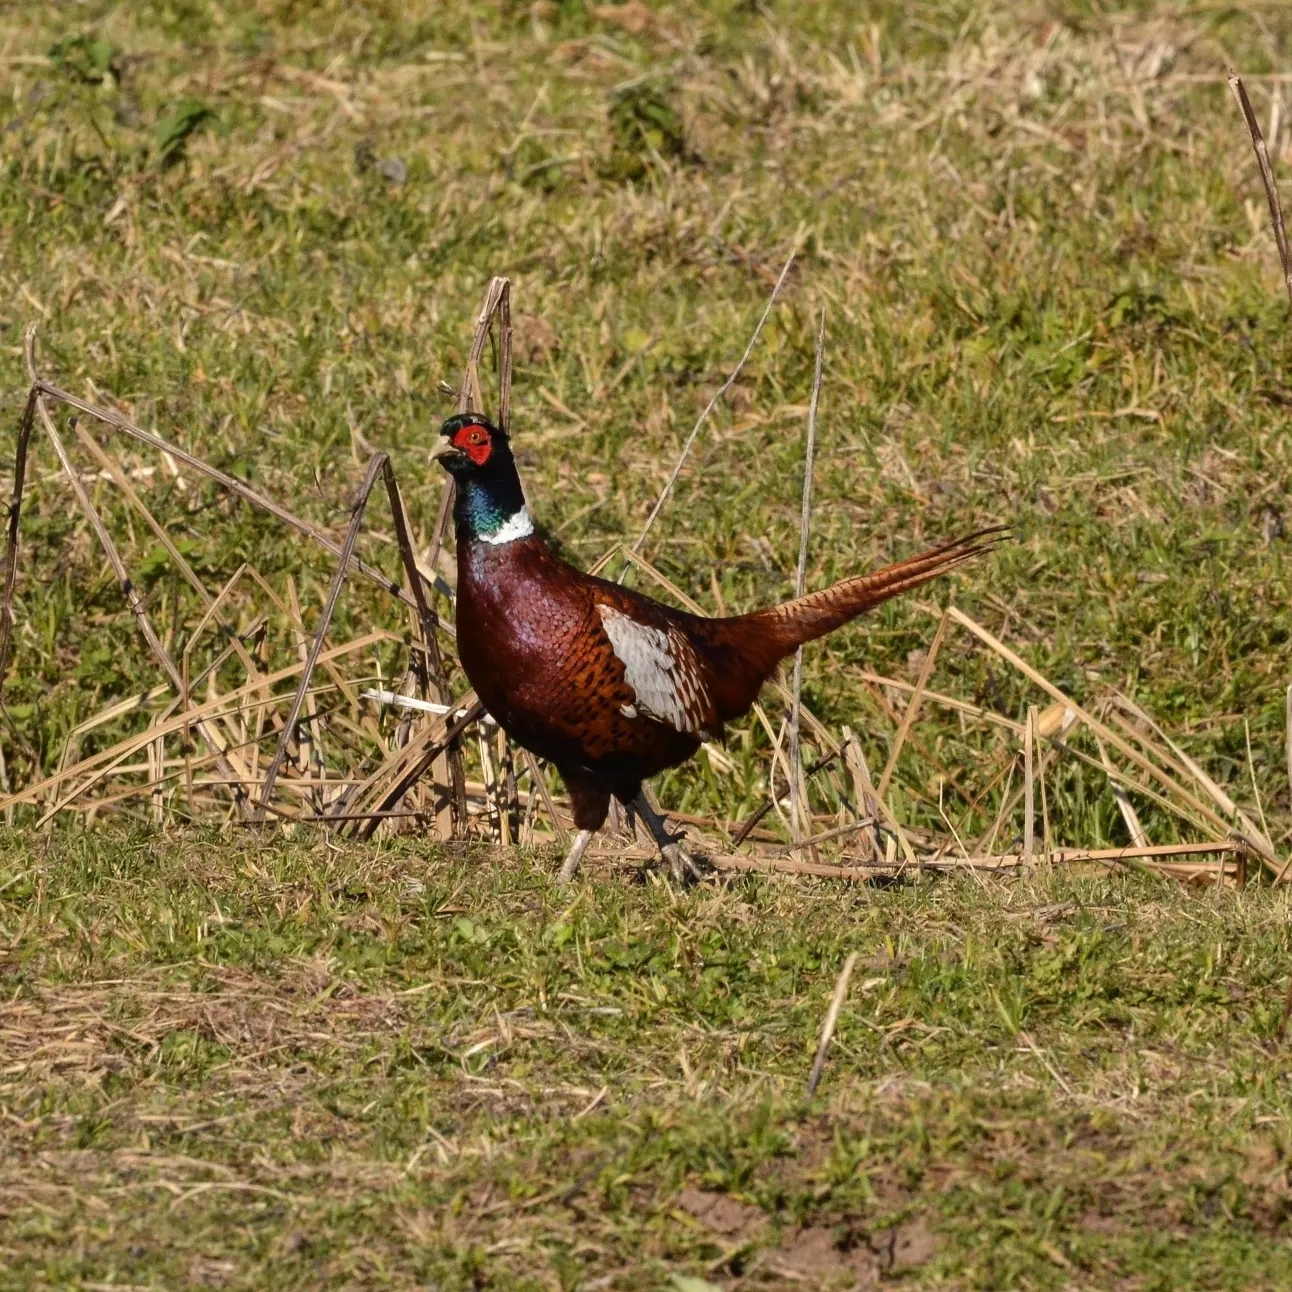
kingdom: Animalia
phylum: Chordata
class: Aves
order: Galliformes
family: Phasianidae
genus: Phasianus
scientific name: Phasianus colchicus
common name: Common pheasant
